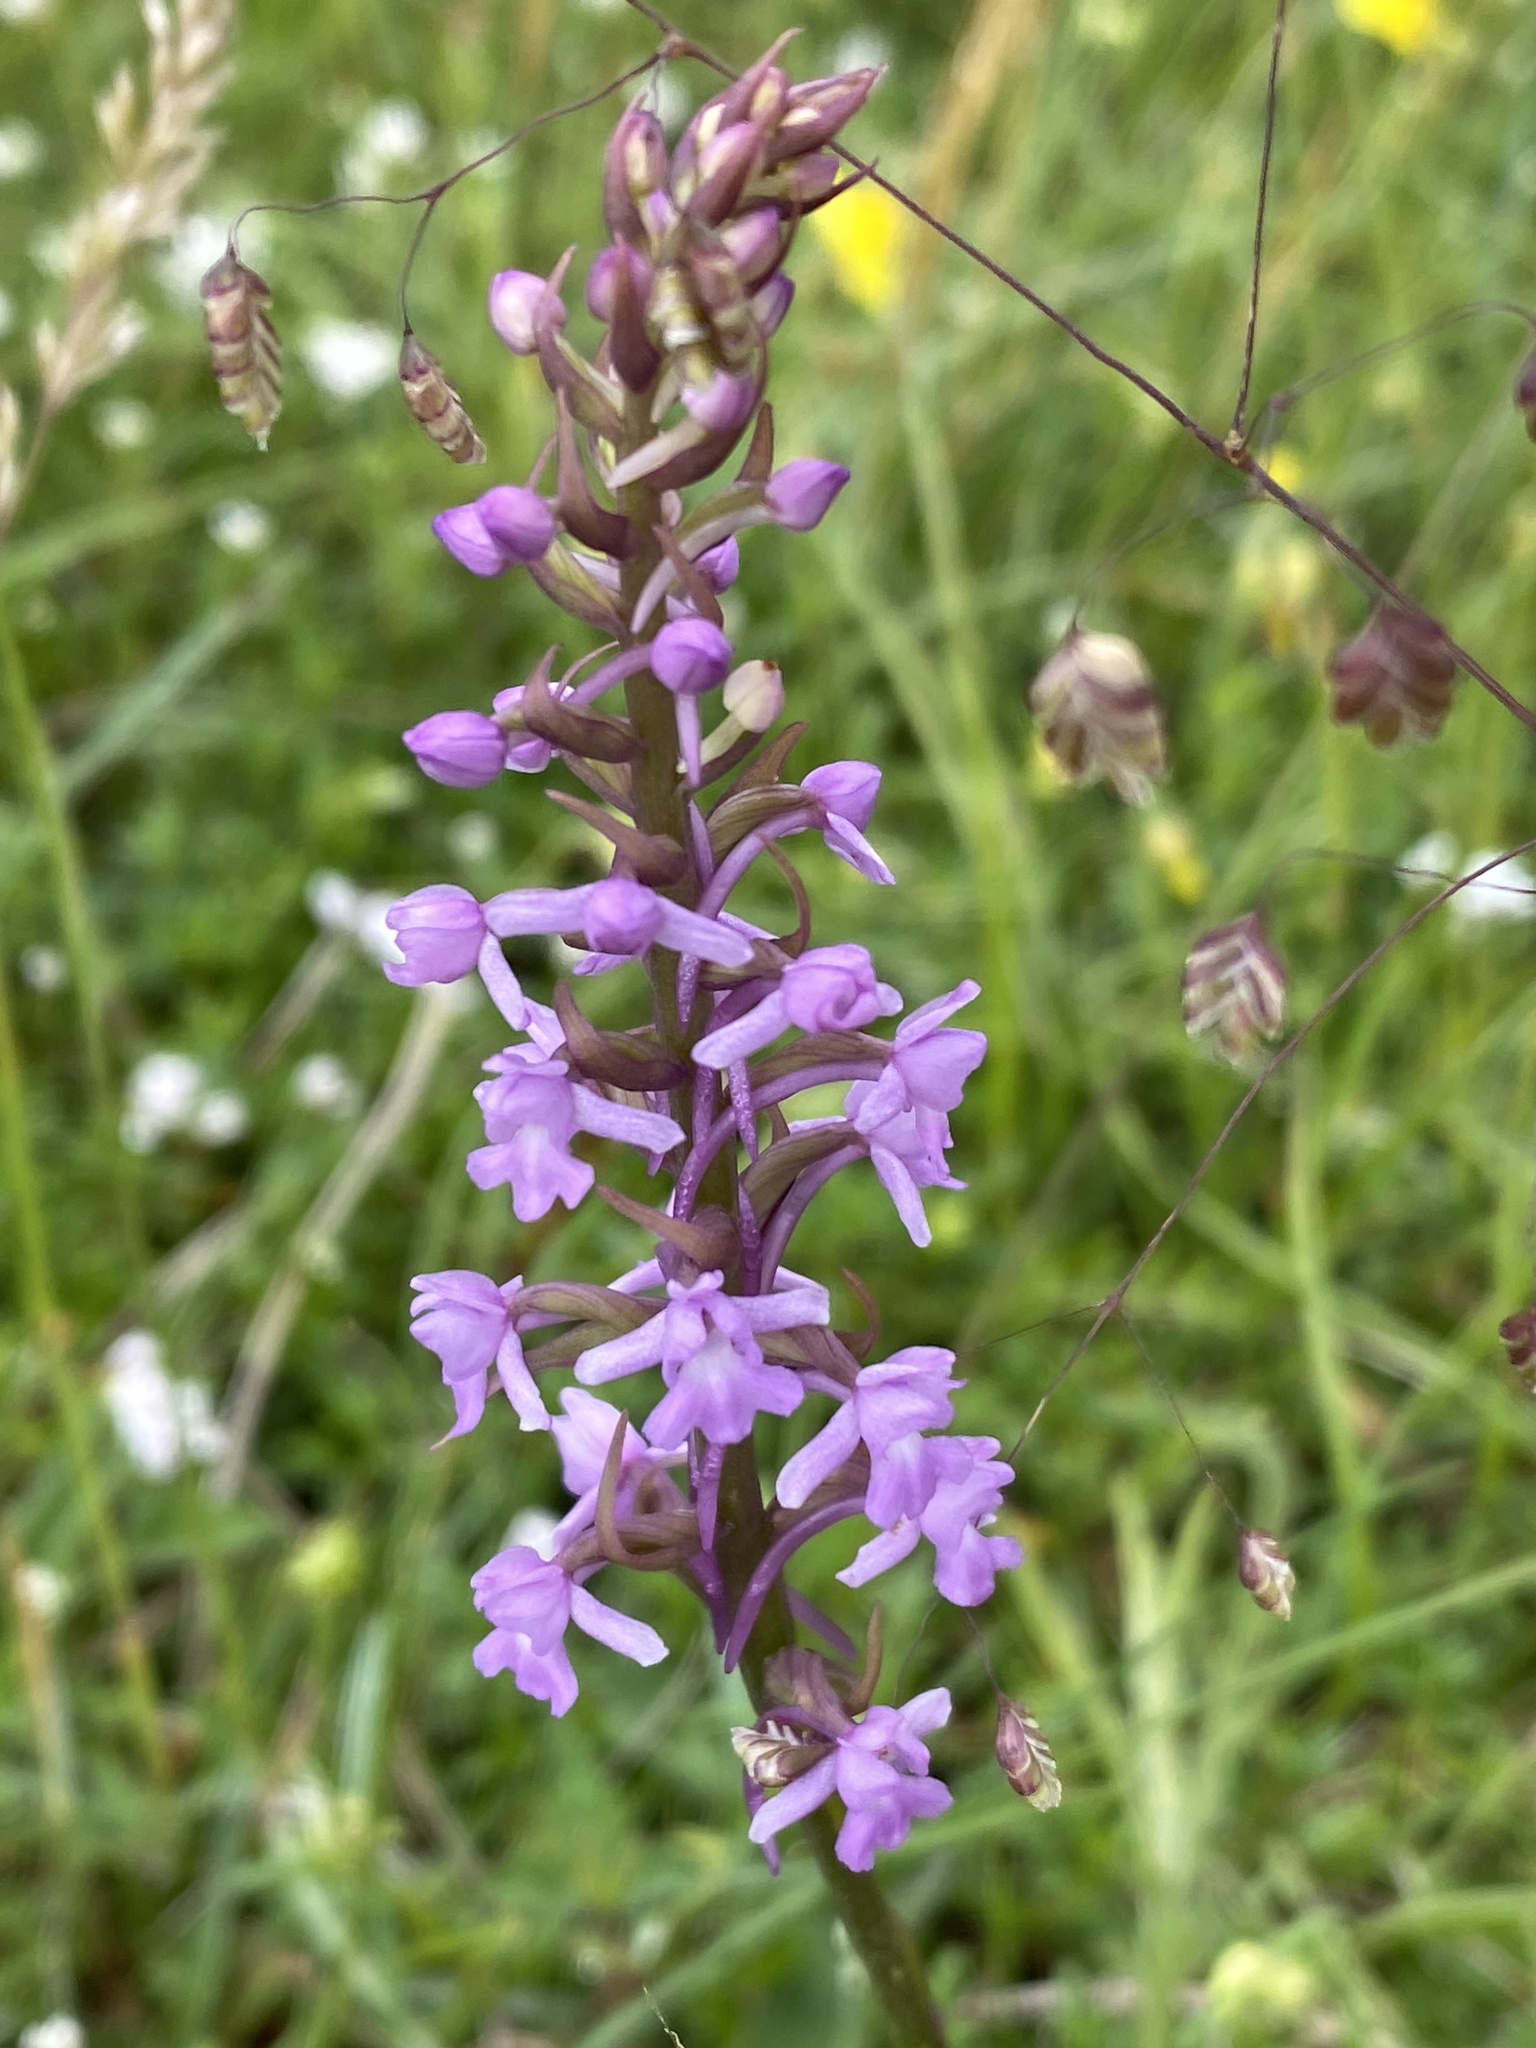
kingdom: Plantae
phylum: Tracheophyta
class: Liliopsida
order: Asparagales
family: Orchidaceae
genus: Gymnadenia
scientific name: Gymnadenia conopsea
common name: Fragrant orchid
